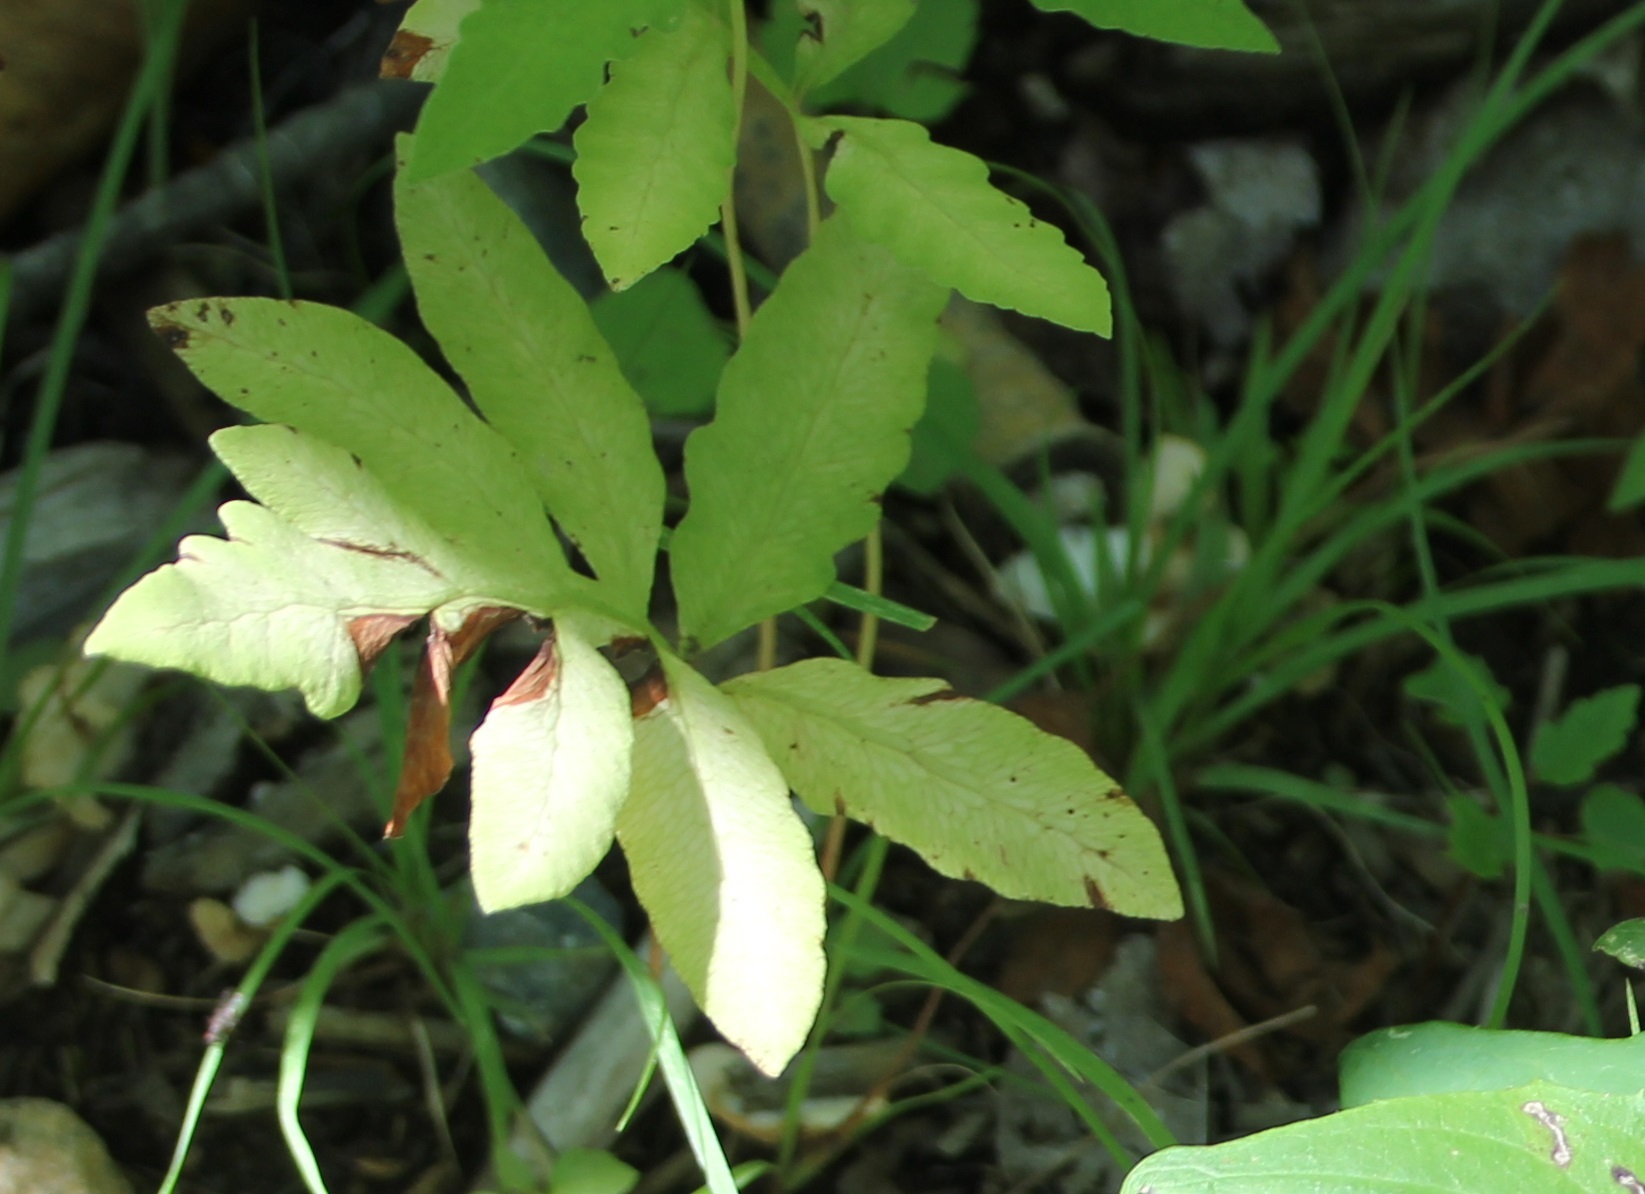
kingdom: Plantae
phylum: Tracheophyta
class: Polypodiopsida
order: Polypodiales
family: Onocleaceae
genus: Onoclea
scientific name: Onoclea sensibilis
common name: Sensitive fern
